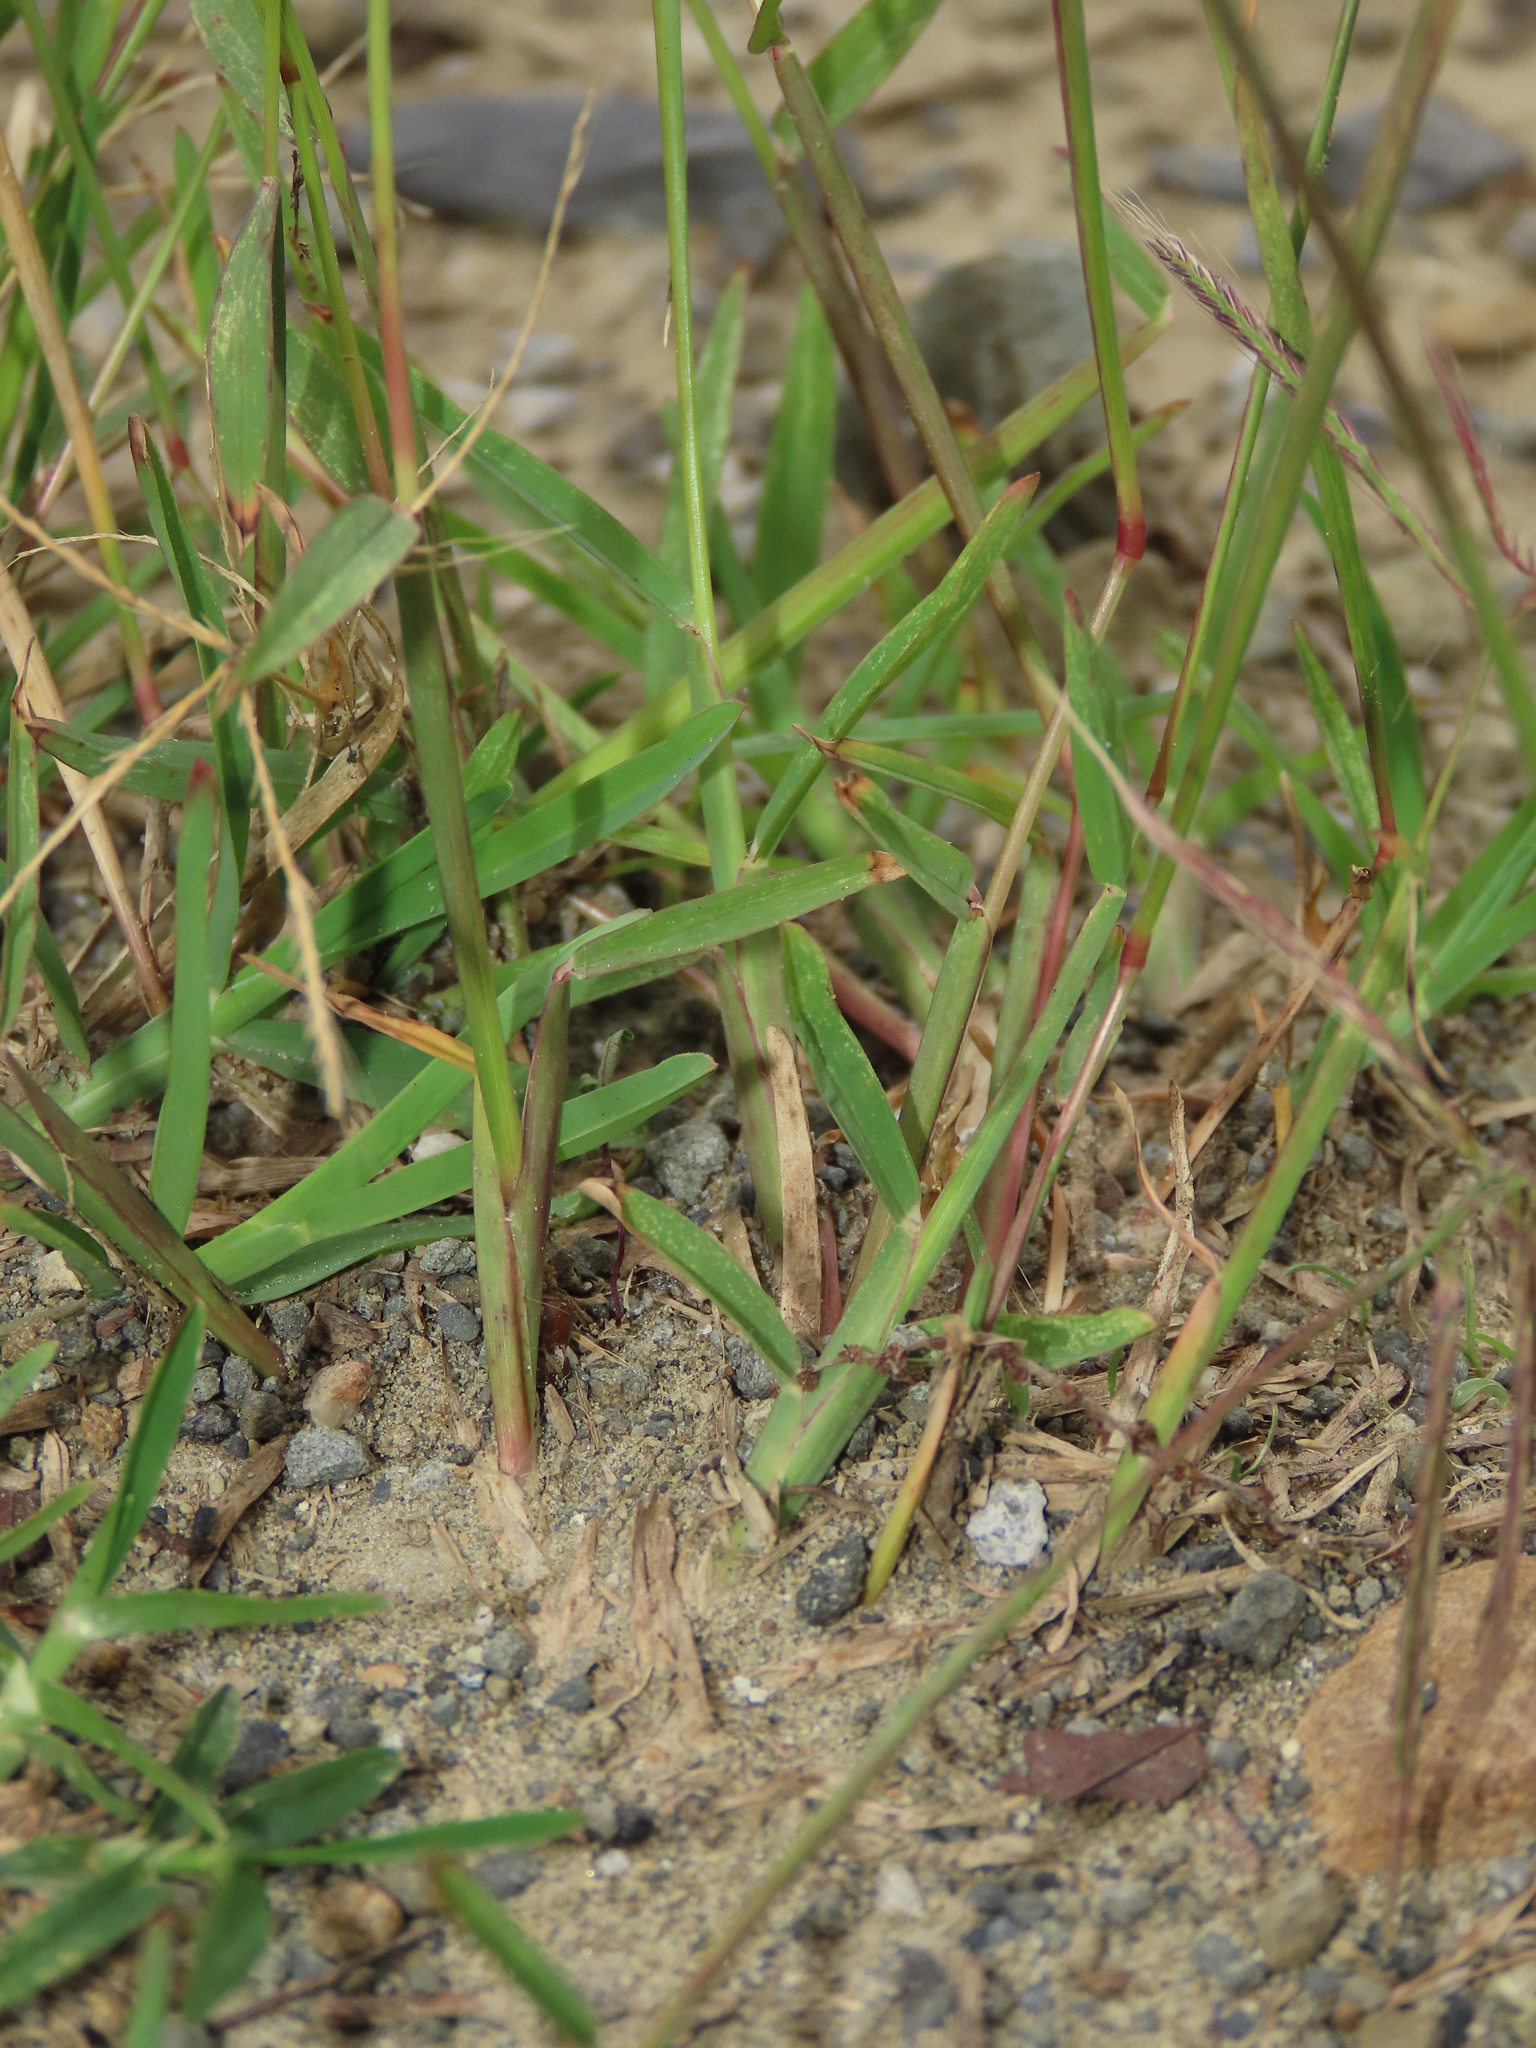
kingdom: Plantae
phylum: Tracheophyta
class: Liliopsida
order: Poales
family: Poaceae
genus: Chloris
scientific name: Chloris divaricata
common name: Spreading windmill grass
